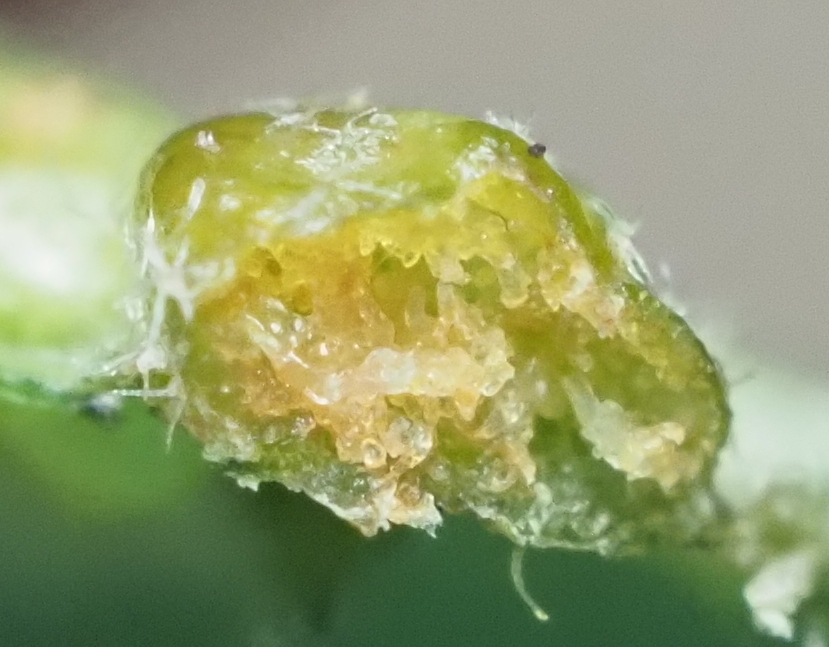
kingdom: Animalia
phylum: Arthropoda
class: Arachnida
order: Trombidiformes
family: Eriophyidae
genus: Aceria
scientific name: Aceria
